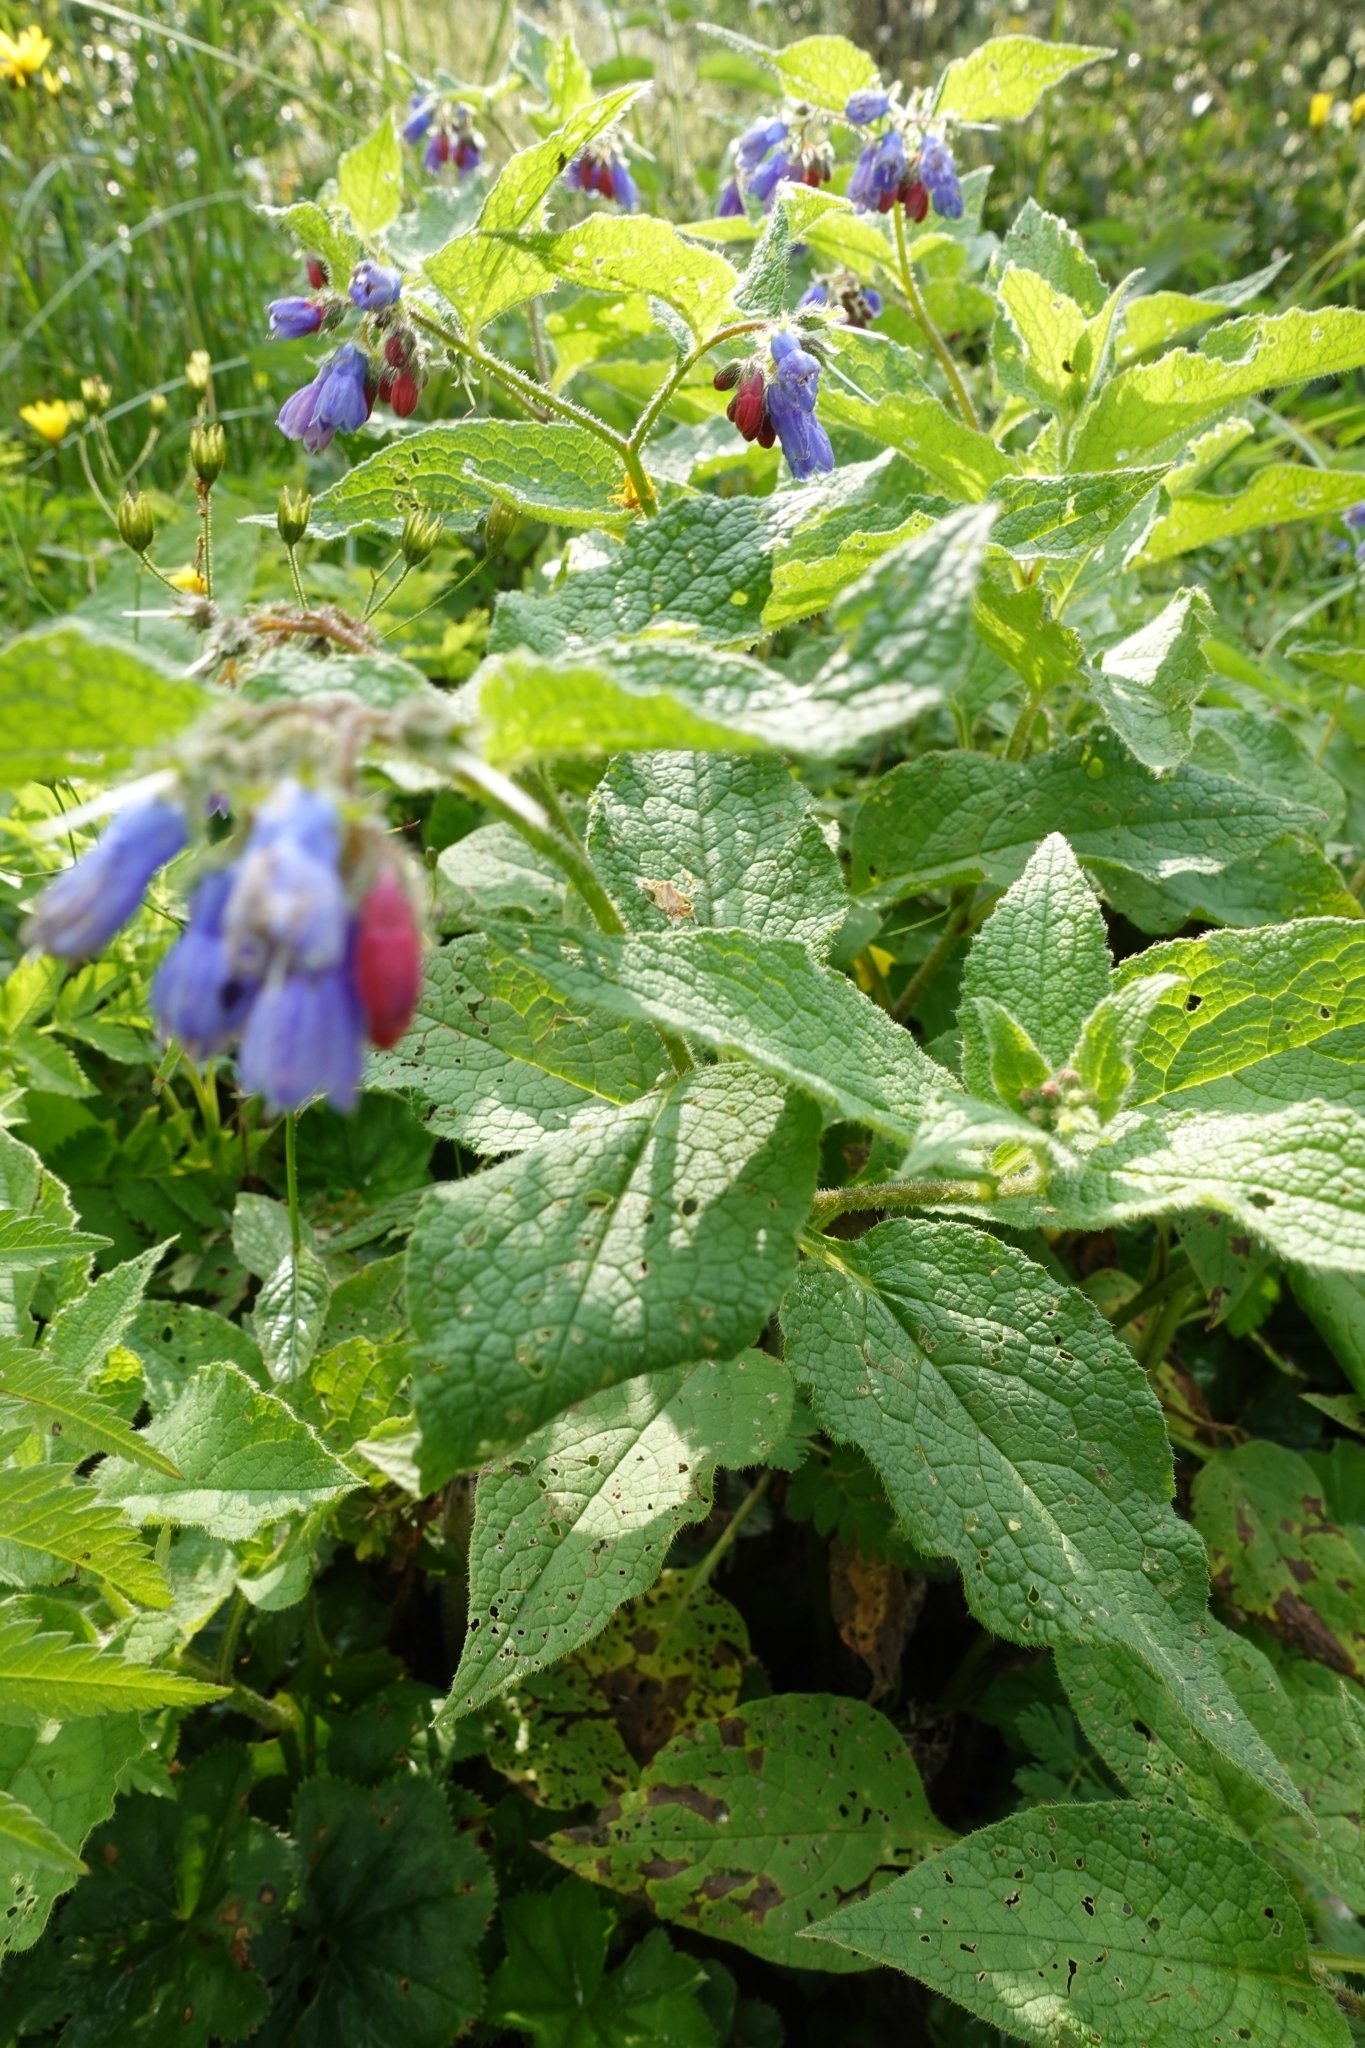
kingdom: Plantae
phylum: Tracheophyta
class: Magnoliopsida
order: Boraginales
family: Boraginaceae
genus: Symphytum
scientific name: Symphytum asperum
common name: Prickly comfrey
